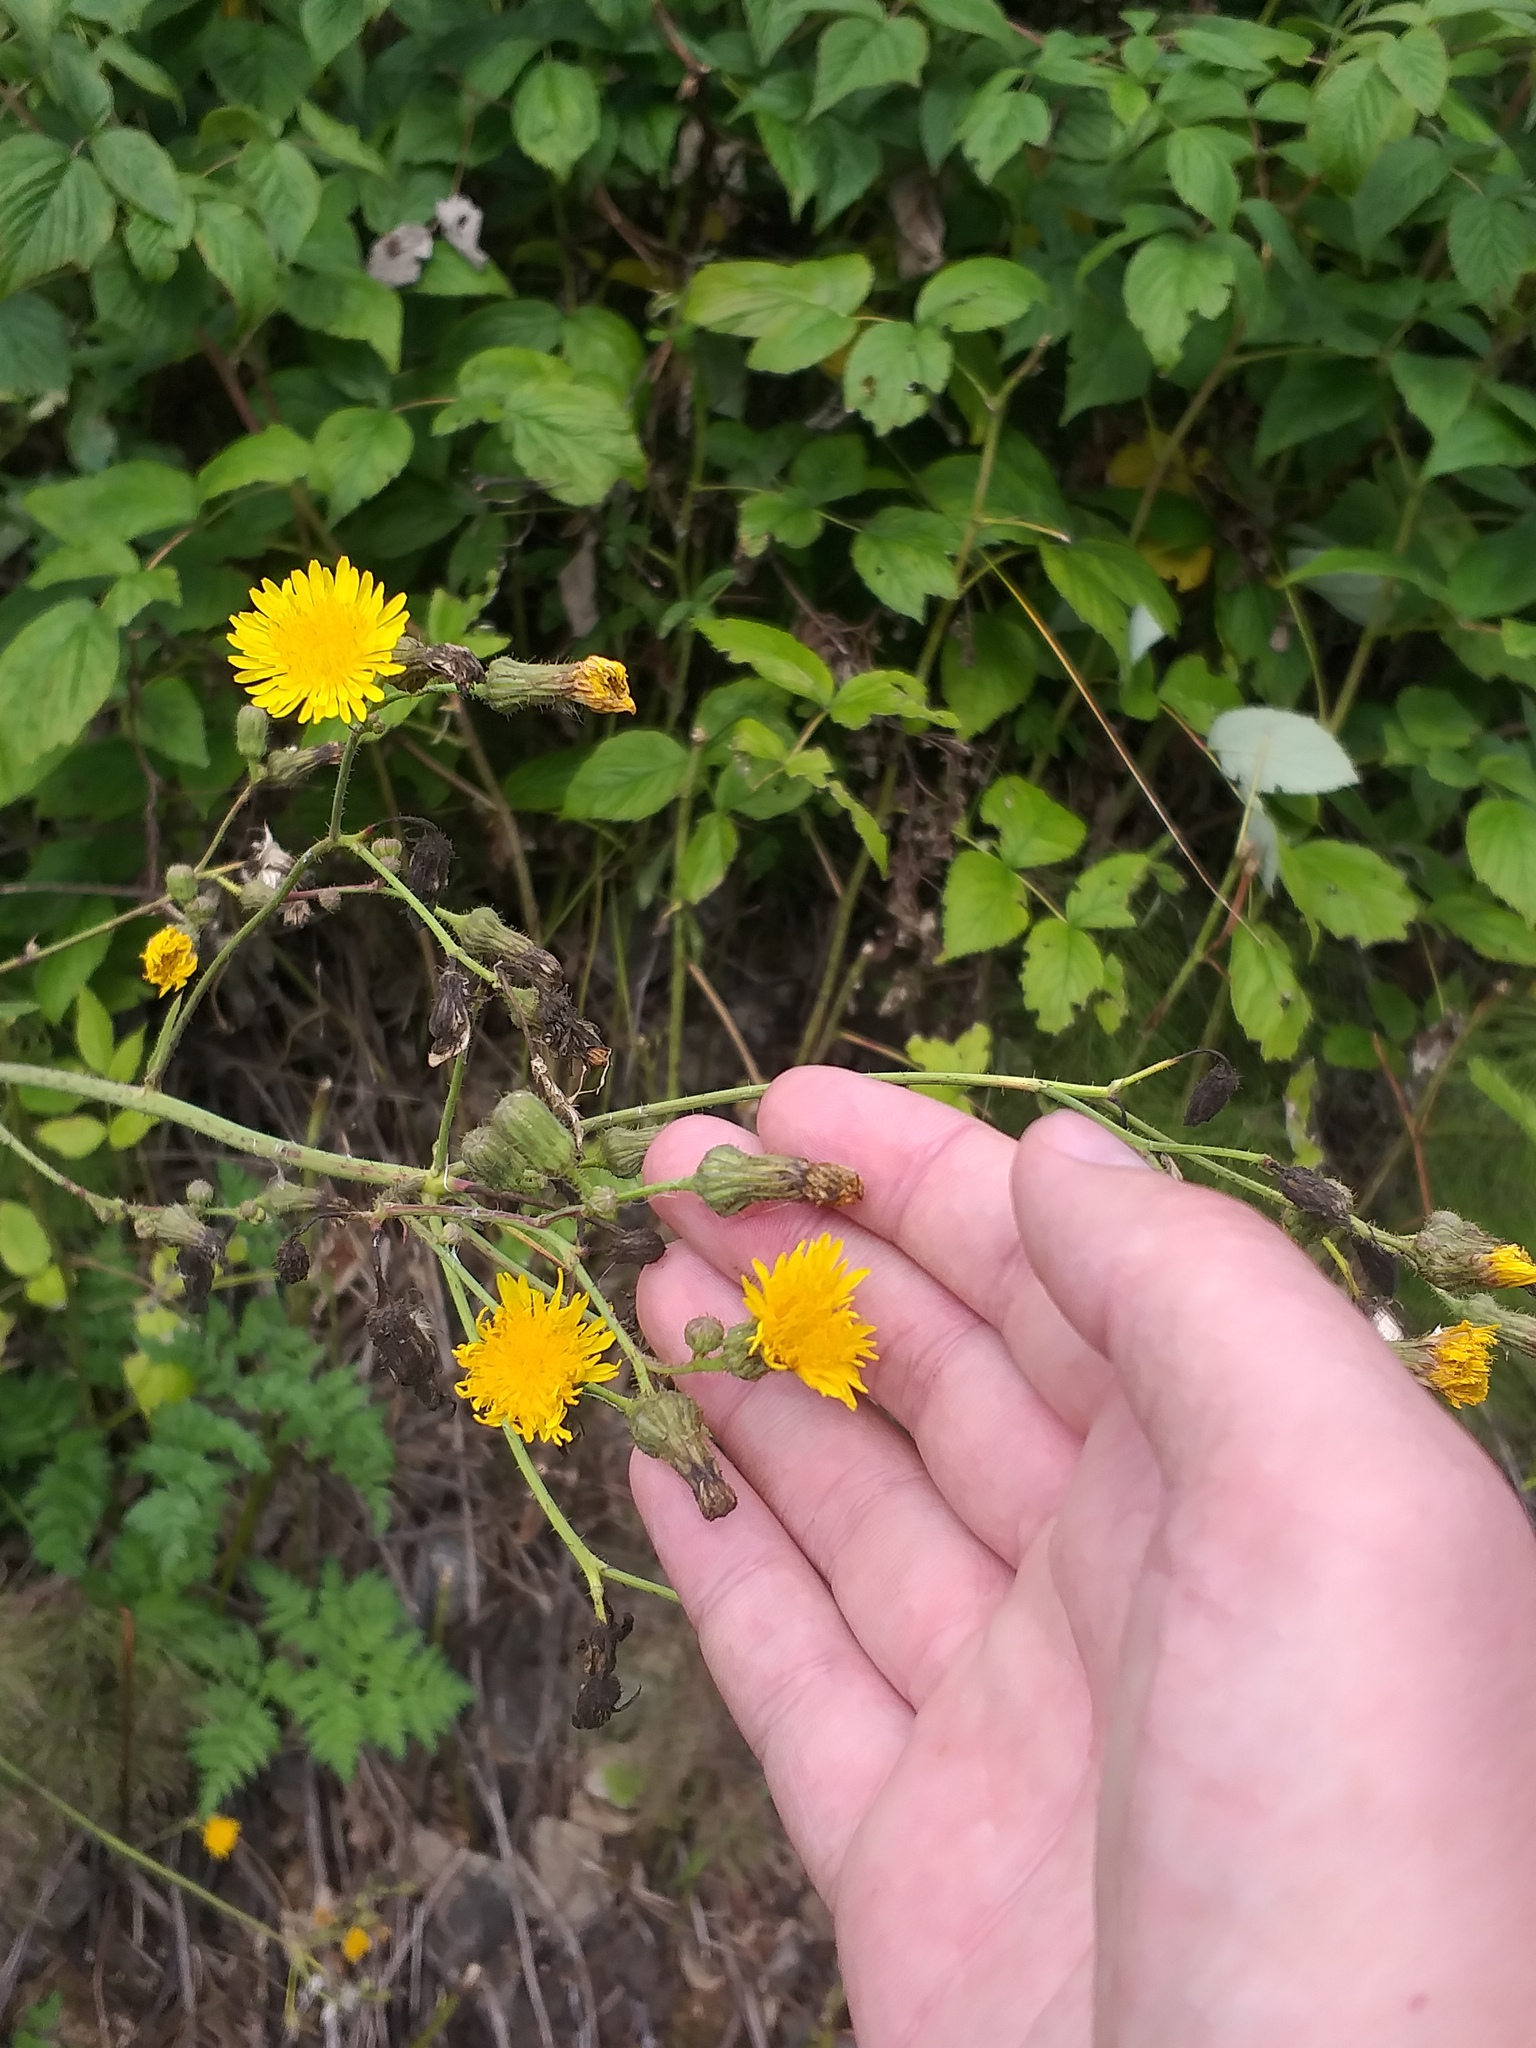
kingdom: Plantae
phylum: Tracheophyta
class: Magnoliopsida
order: Asterales
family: Asteraceae
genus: Sonchus
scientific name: Sonchus arvensis
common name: Perennial sow-thistle
